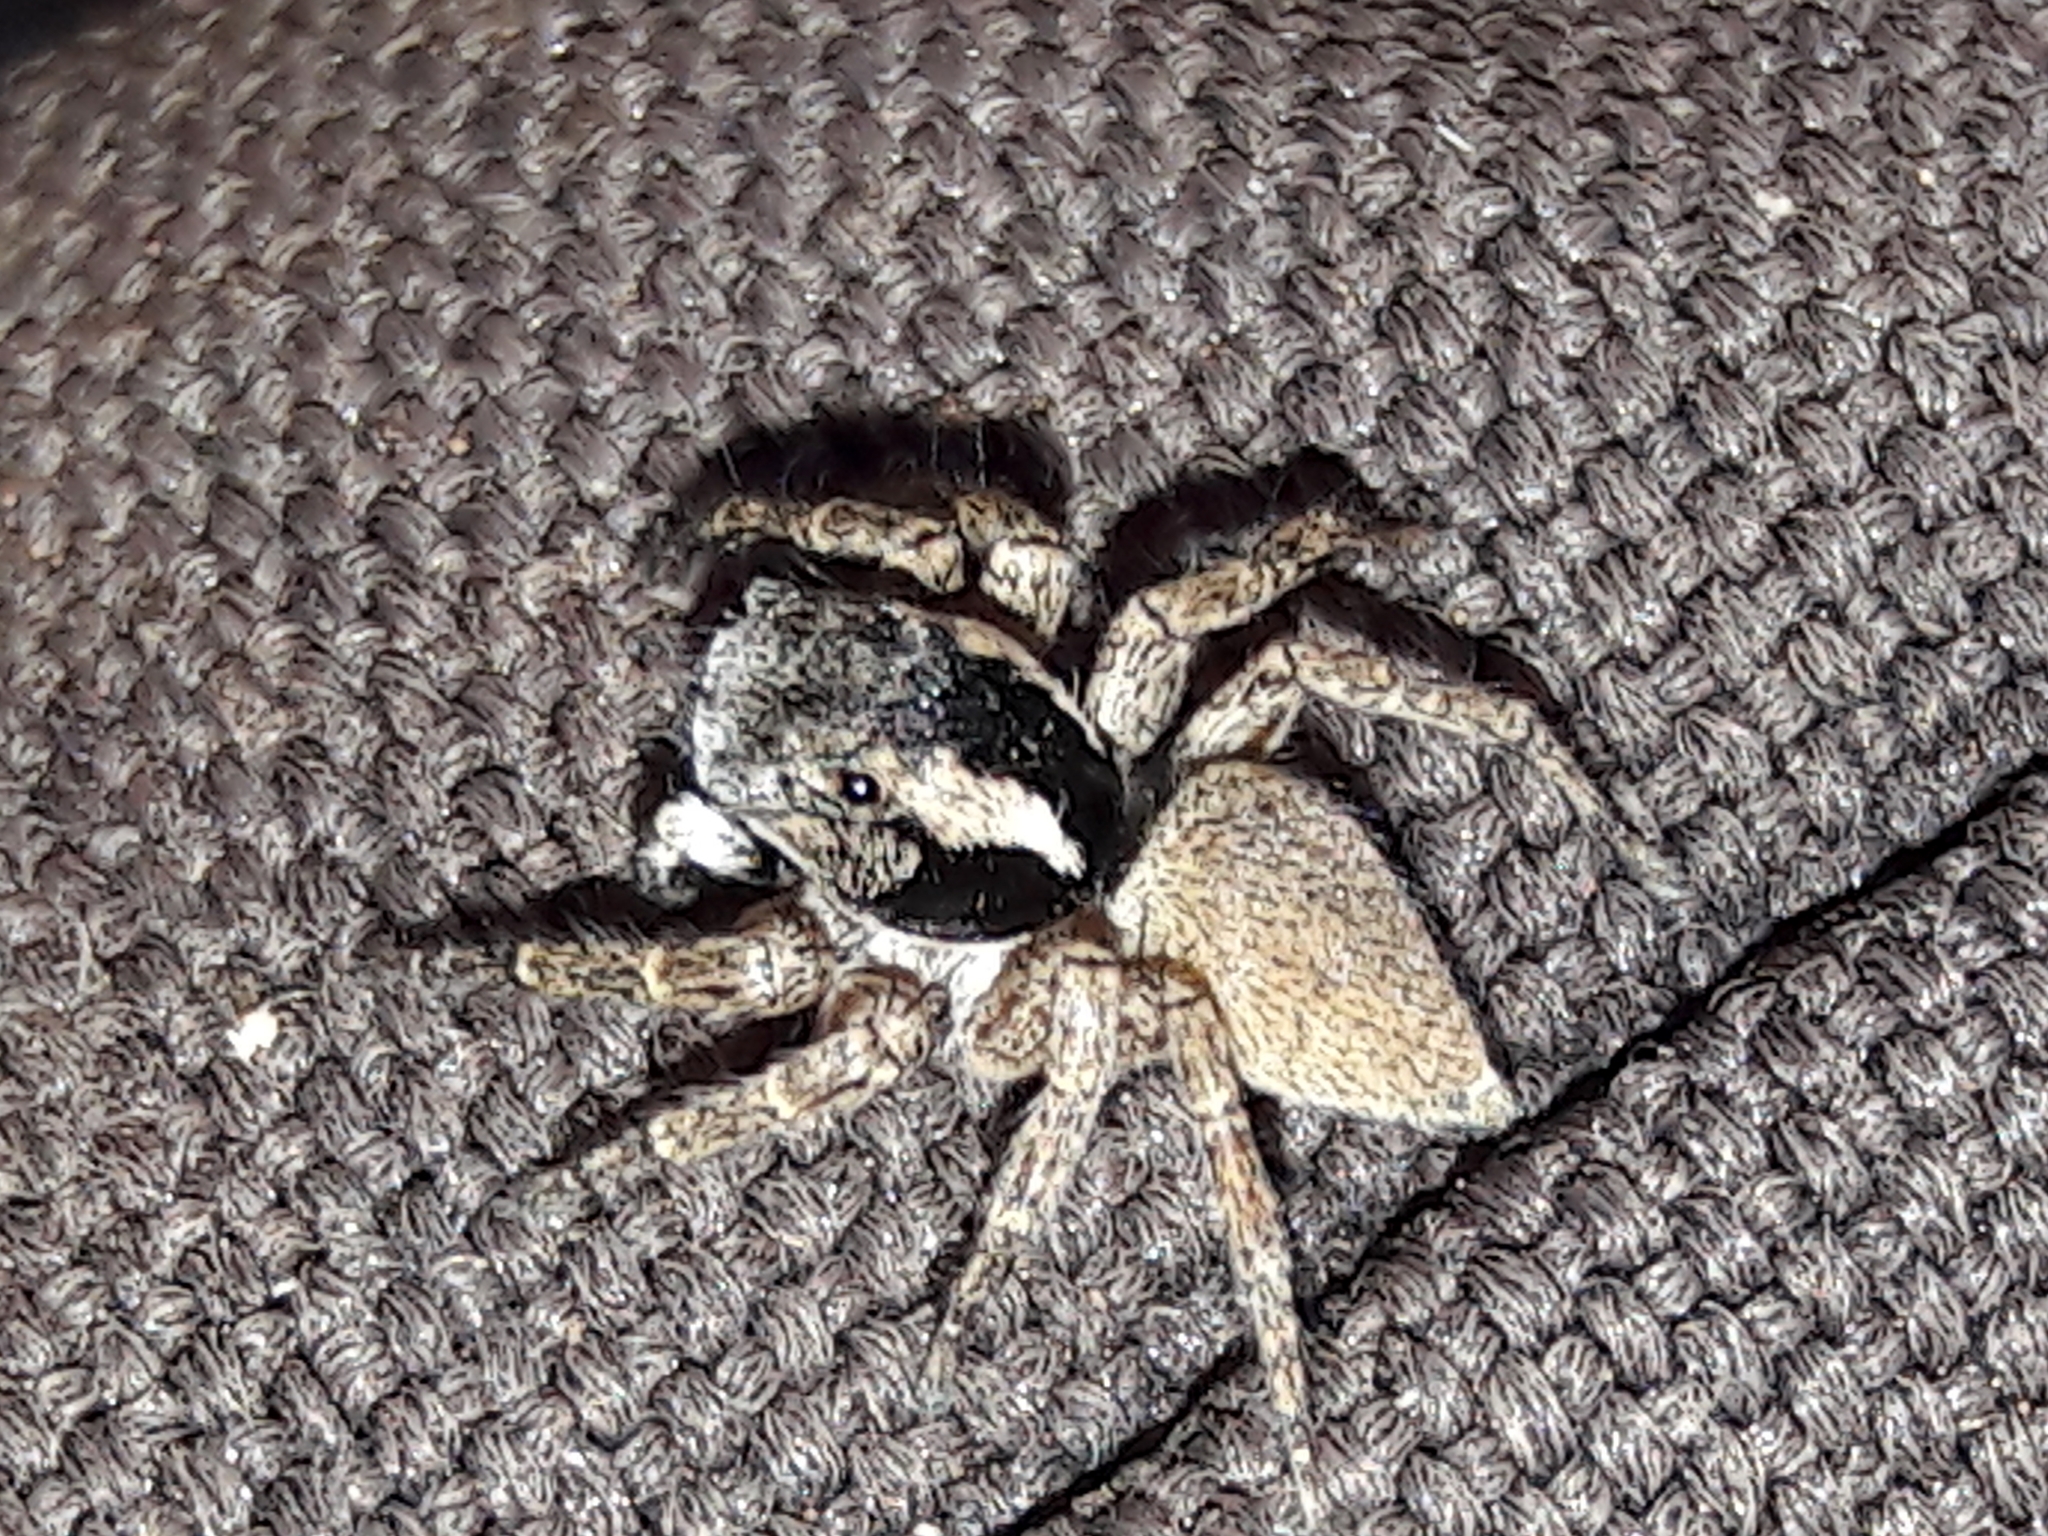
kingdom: Animalia
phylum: Arthropoda
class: Arachnida
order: Araneae
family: Salticidae
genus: Sumampattus
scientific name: Sumampattus quinqueradiatus
